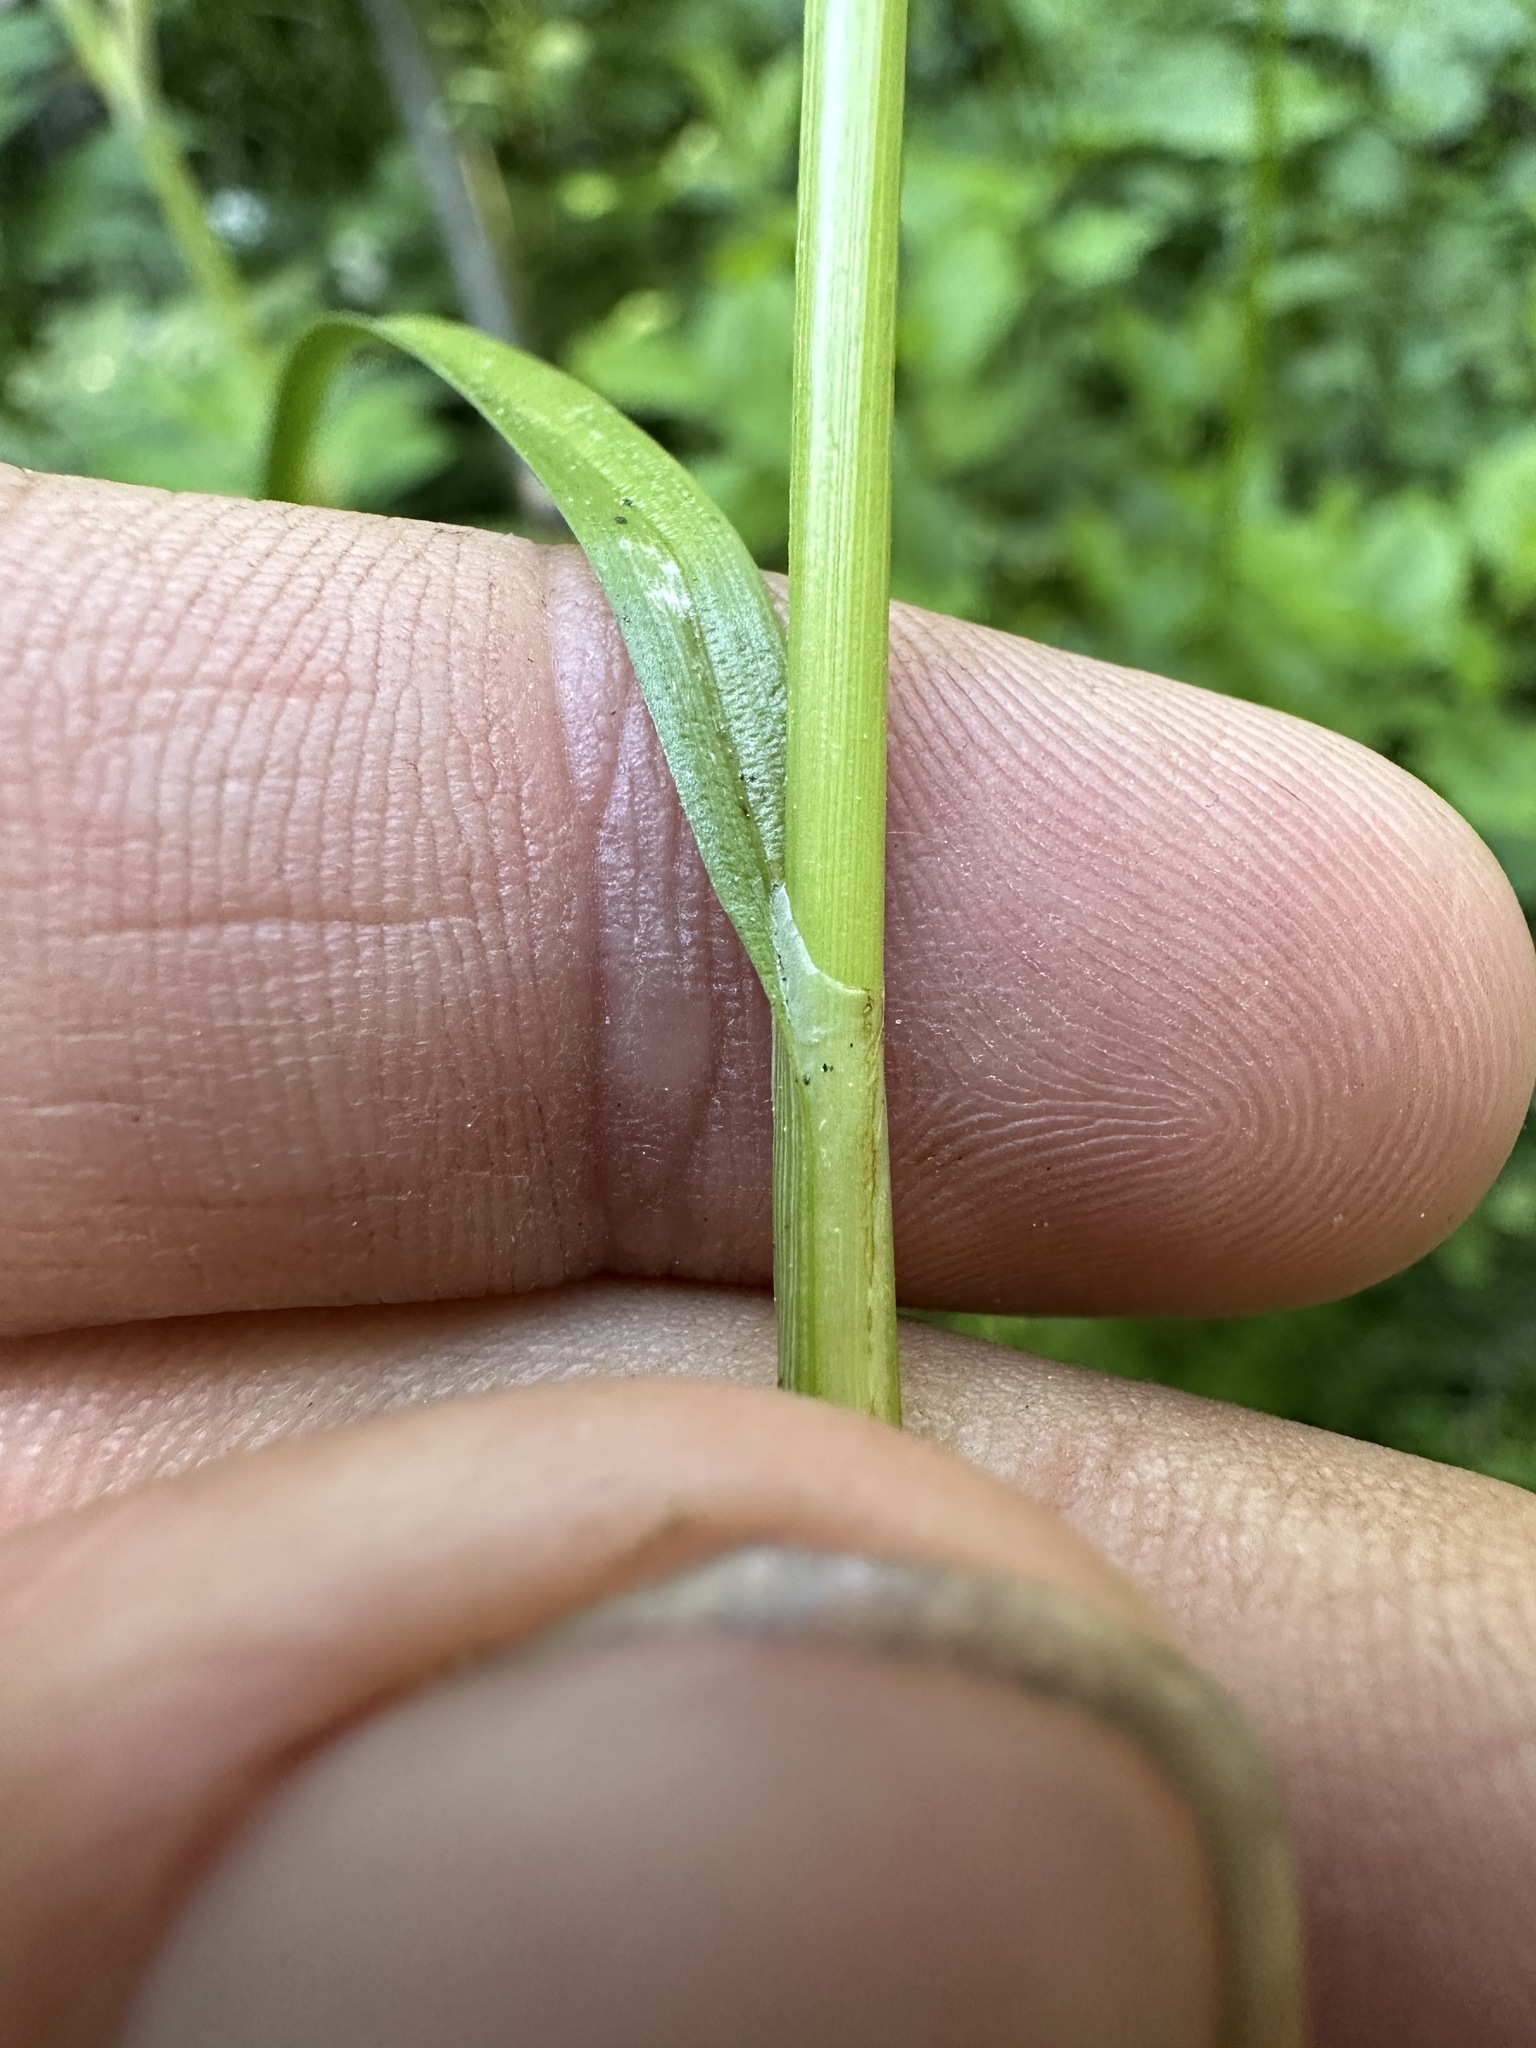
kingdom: Plantae
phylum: Tracheophyta
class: Liliopsida
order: Poales
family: Cyperaceae
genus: Carex
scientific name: Carex pachystachya
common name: Chamisso's sedge
